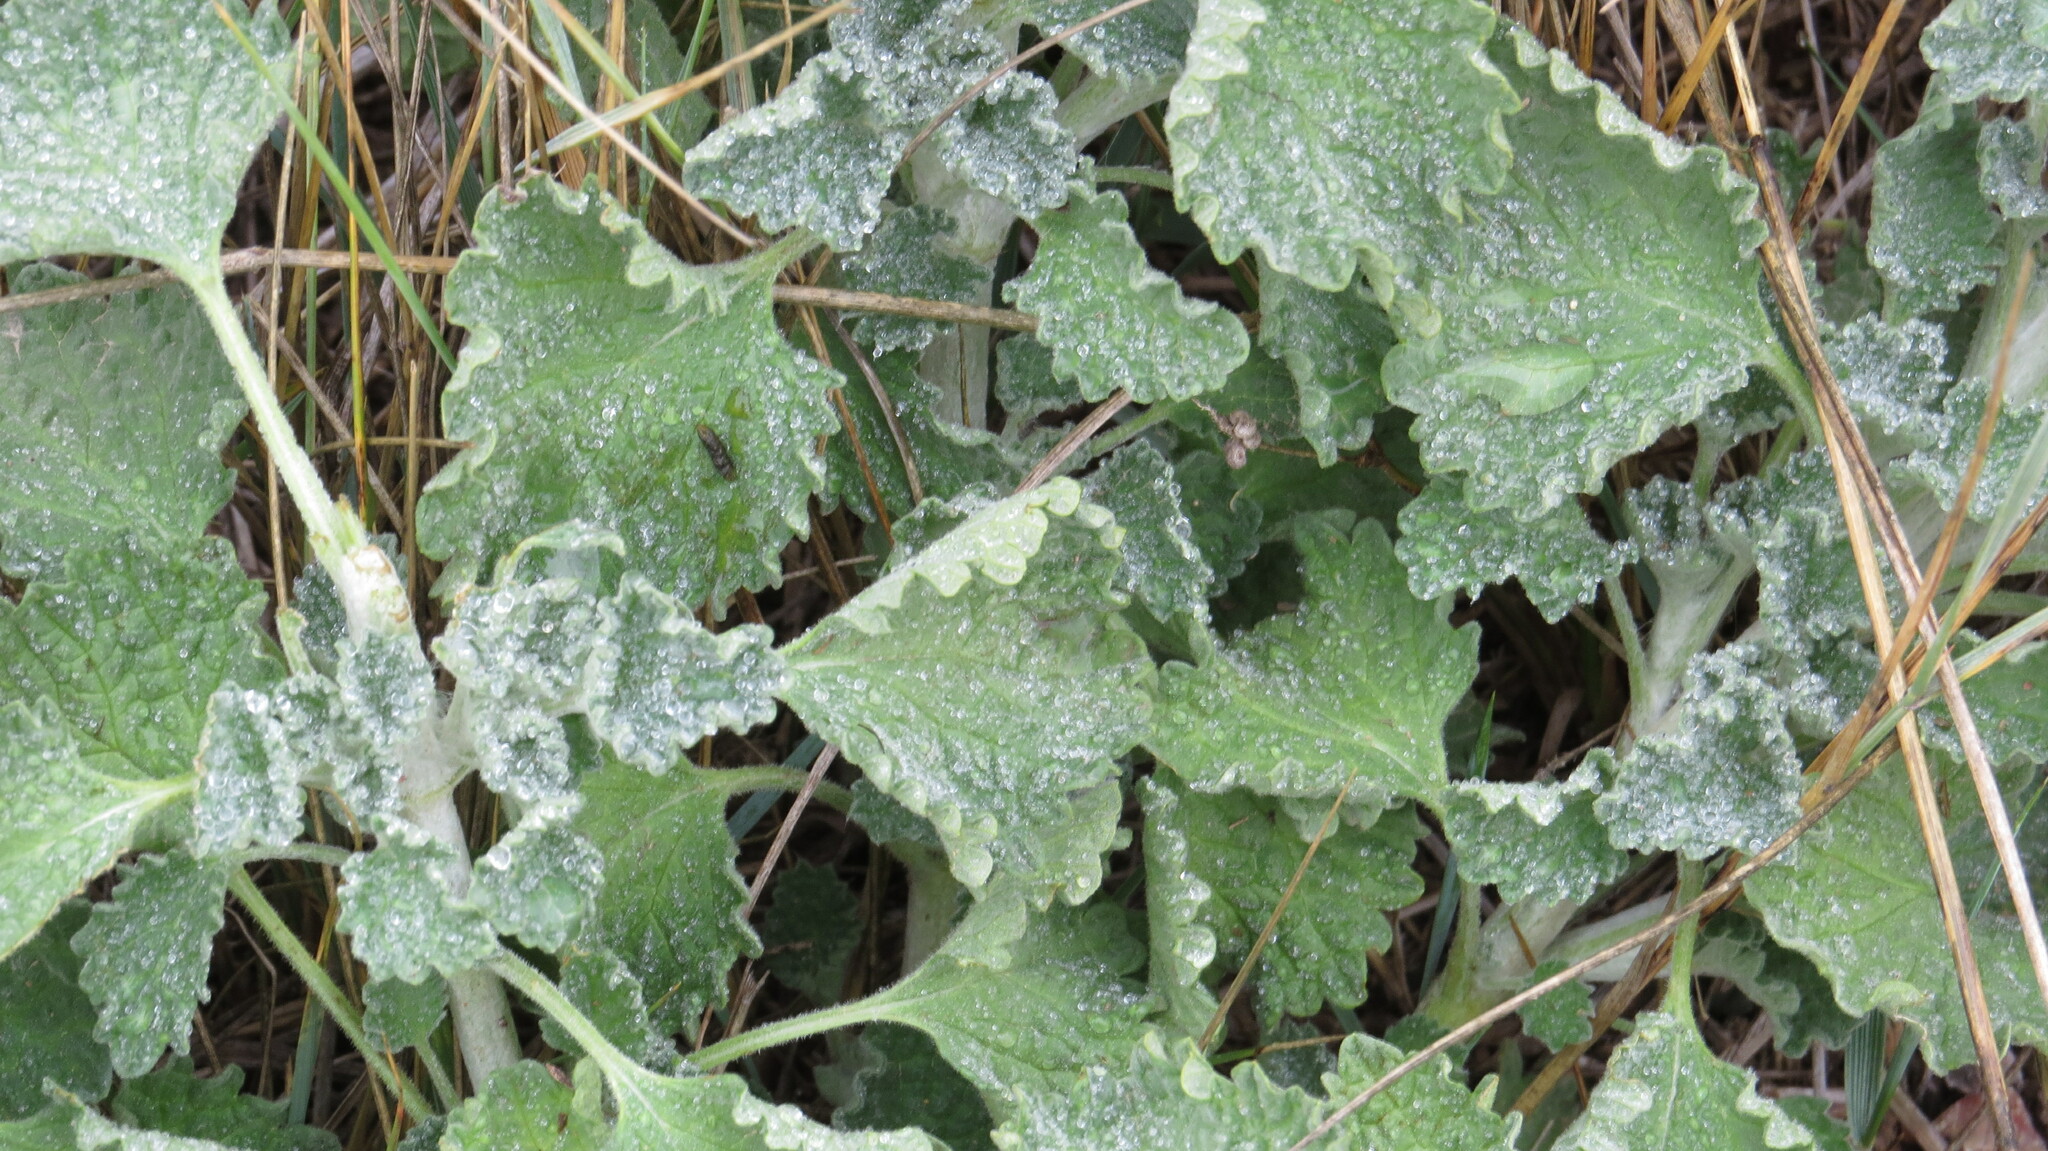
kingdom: Plantae
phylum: Tracheophyta
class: Magnoliopsida
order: Lamiales
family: Lamiaceae
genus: Marrubium
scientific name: Marrubium vulgare
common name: Horehound
